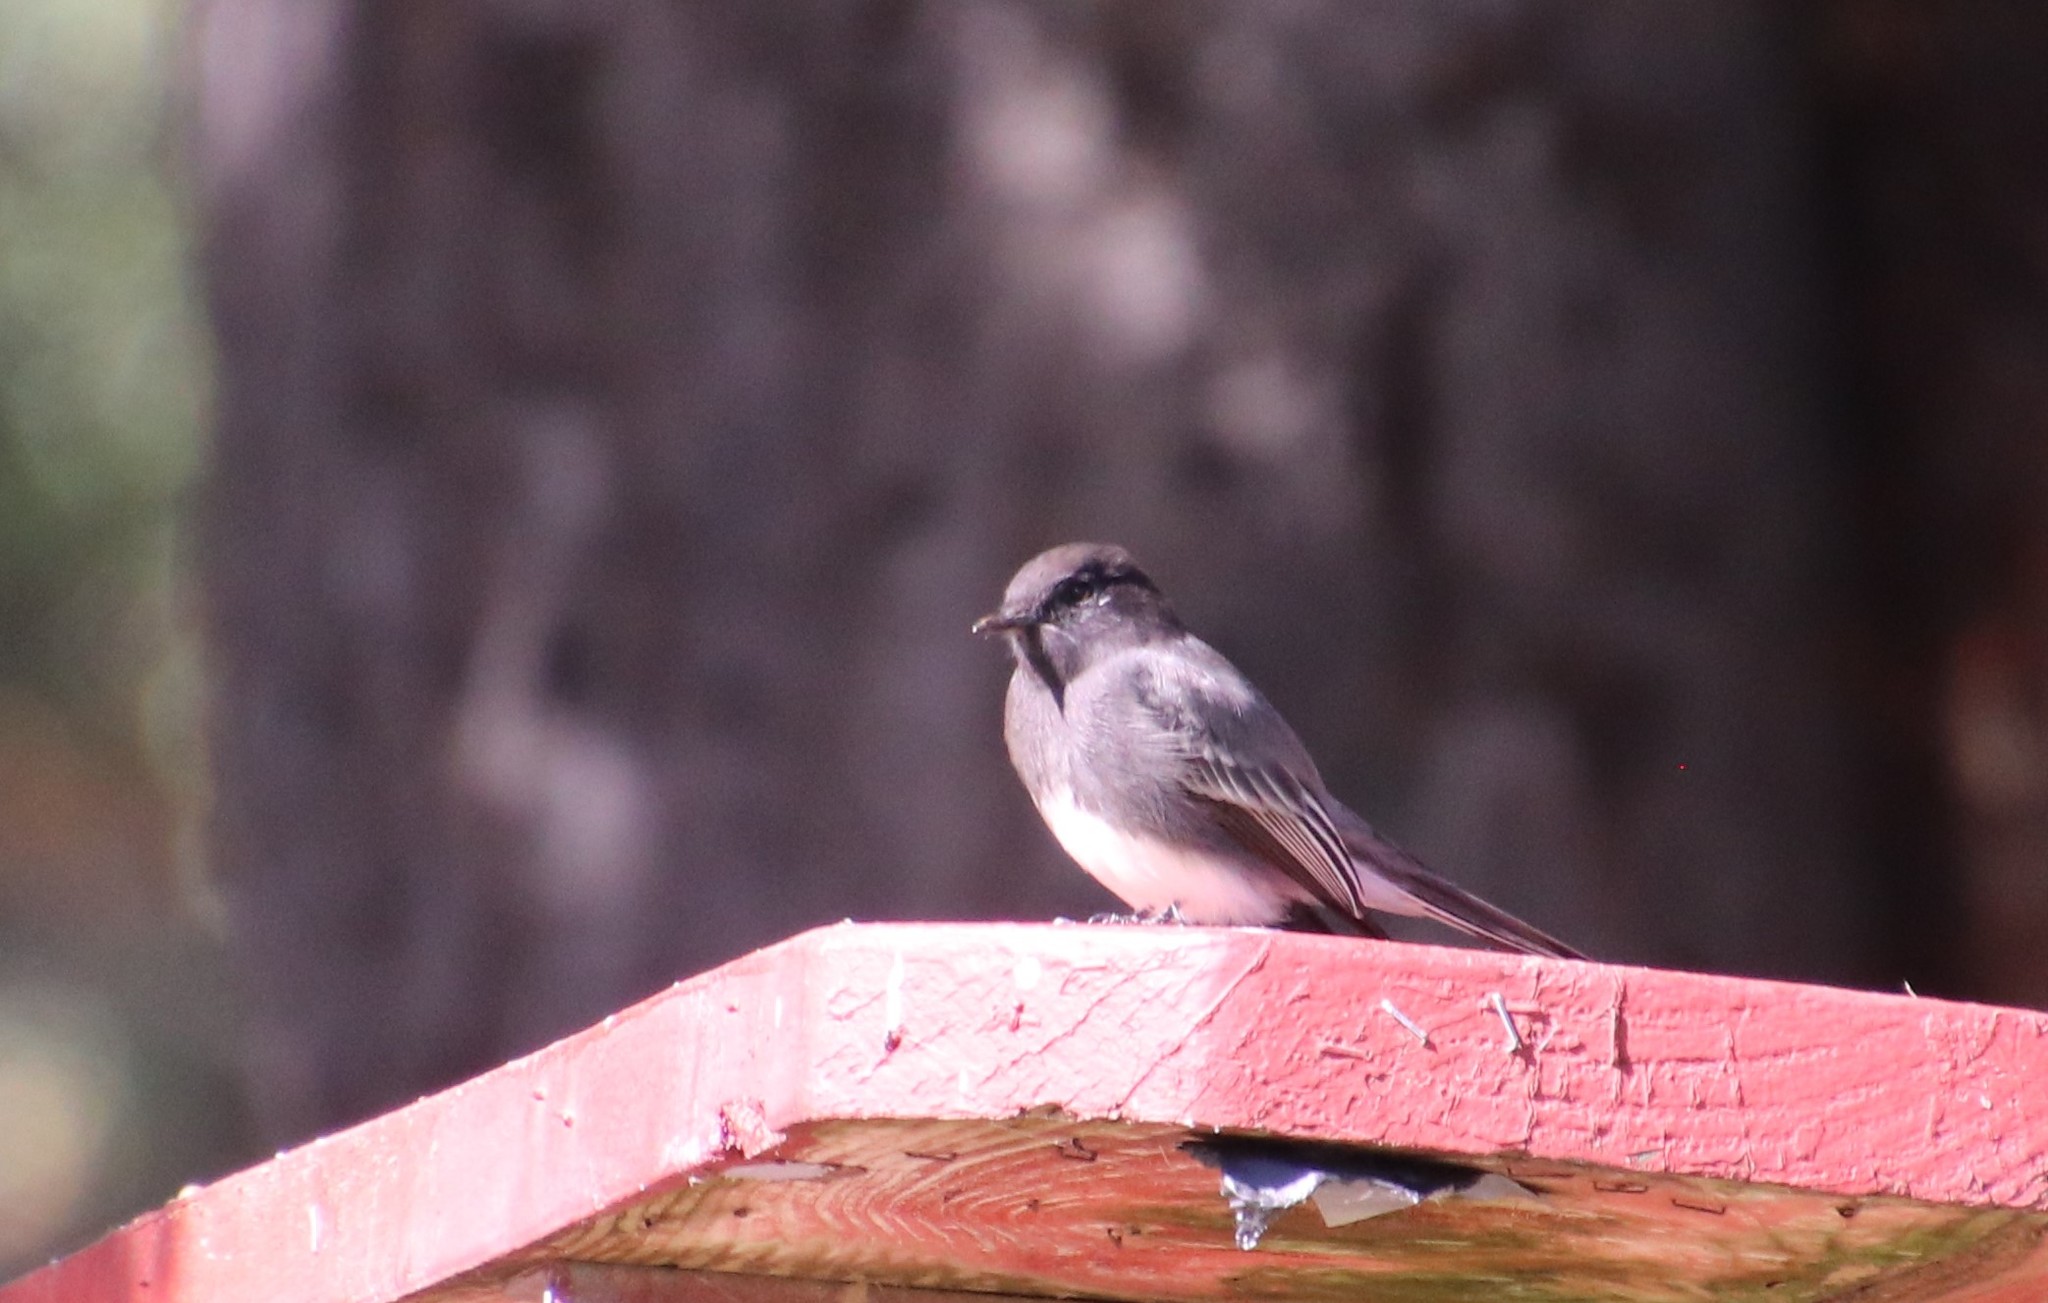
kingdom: Animalia
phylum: Chordata
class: Aves
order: Passeriformes
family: Tyrannidae
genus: Sayornis
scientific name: Sayornis nigricans
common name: Black phoebe
